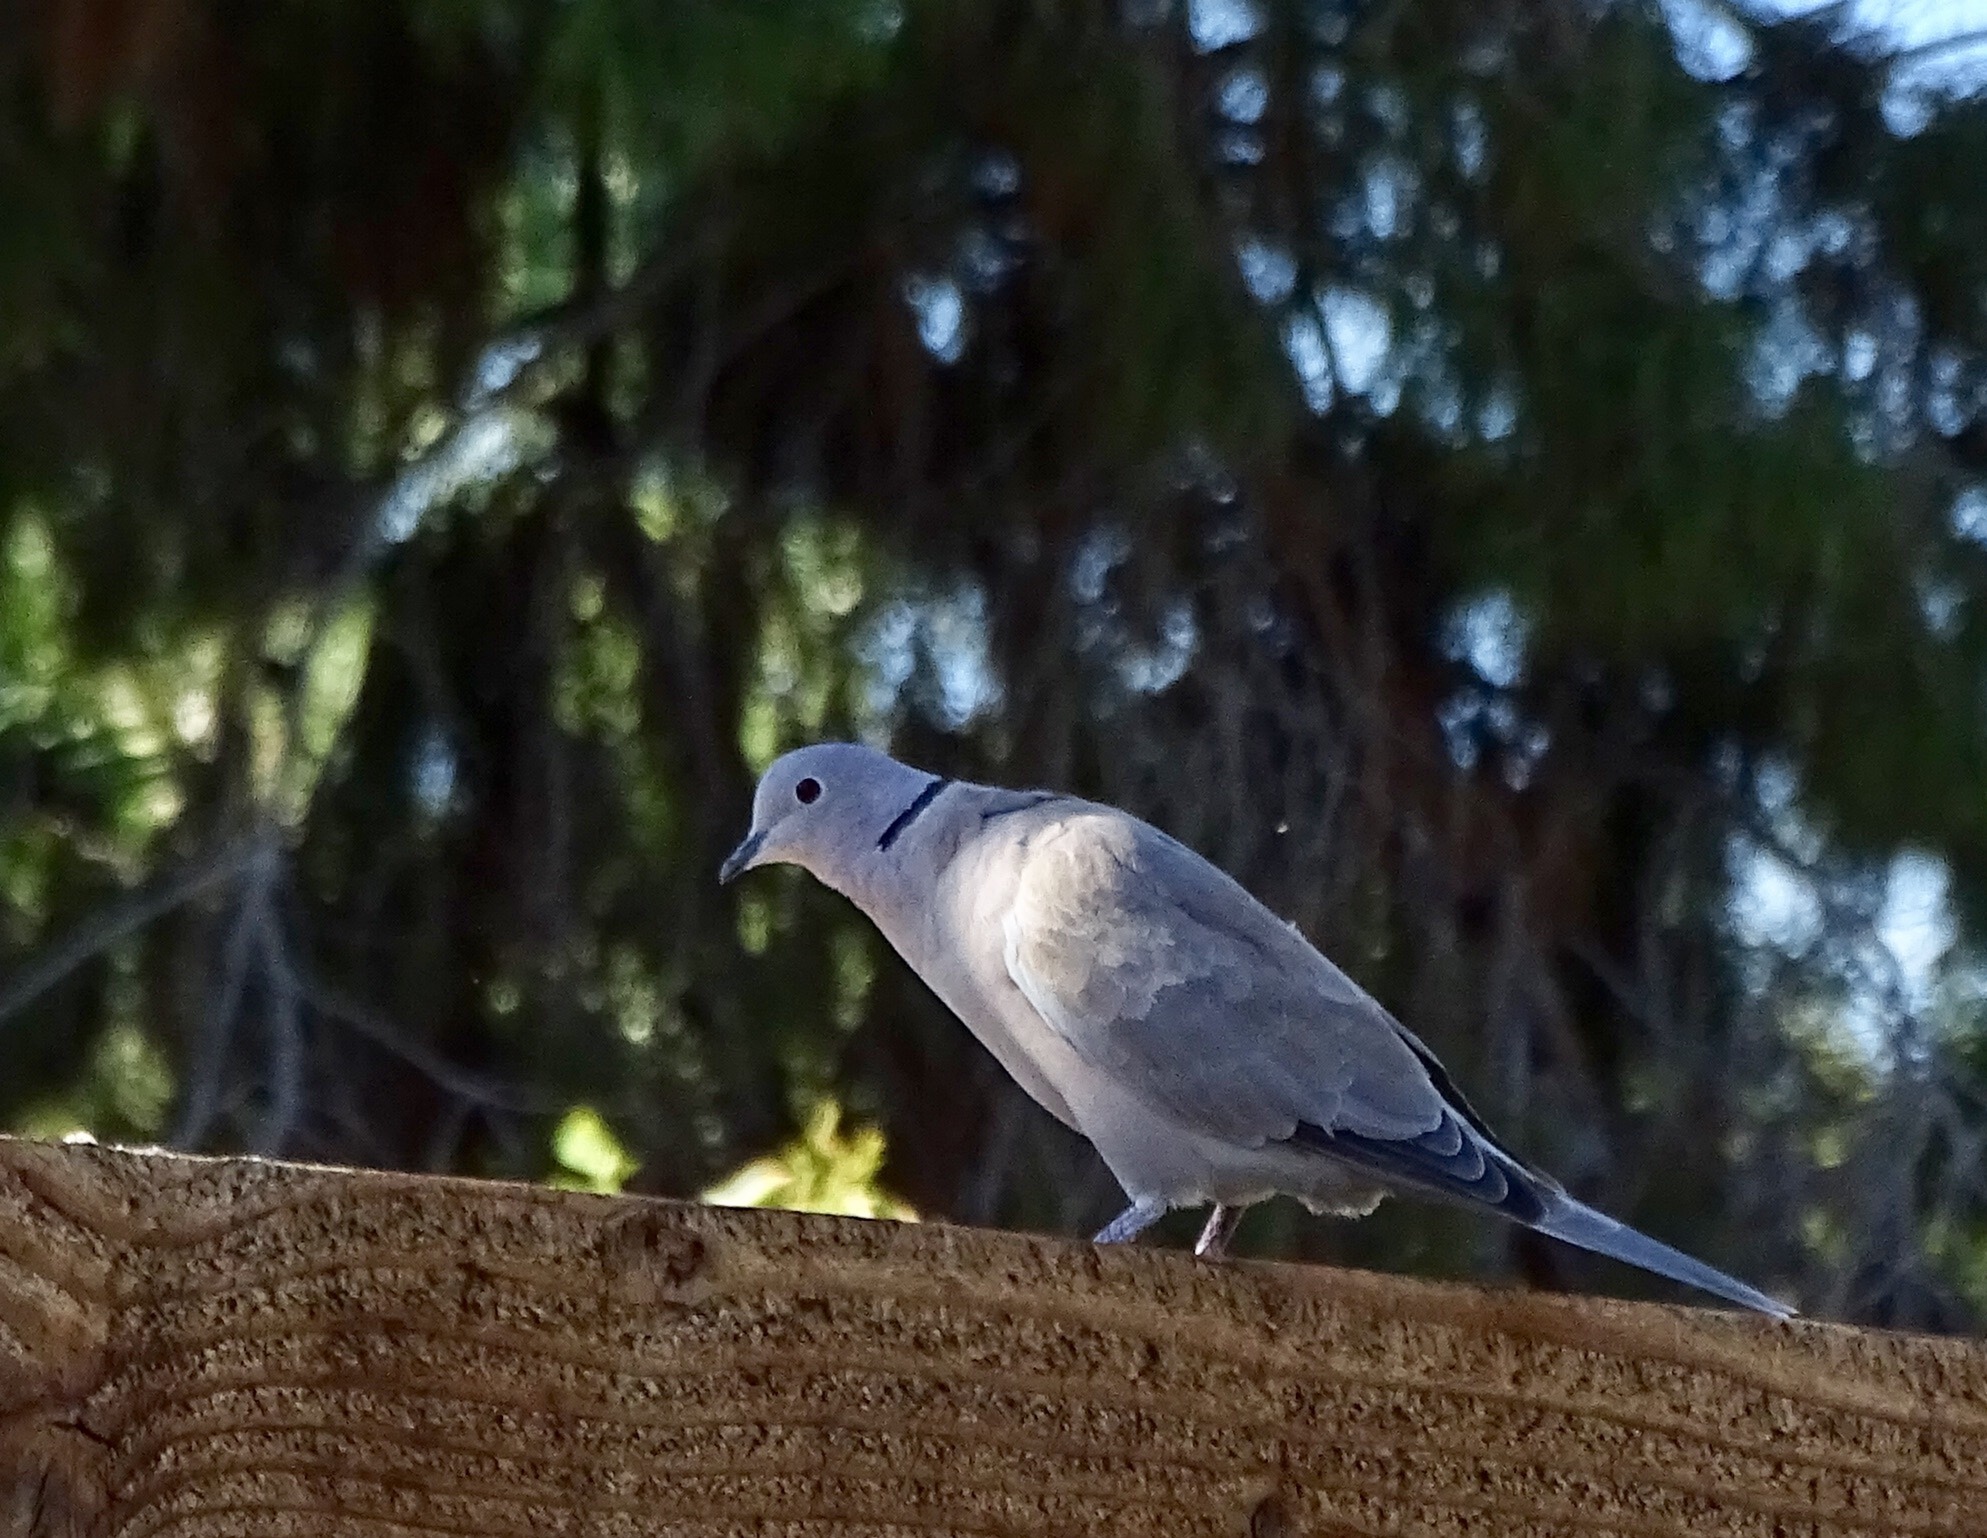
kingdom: Animalia
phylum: Chordata
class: Aves
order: Columbiformes
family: Columbidae
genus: Streptopelia
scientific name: Streptopelia decaocto
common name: Eurasian collared dove
